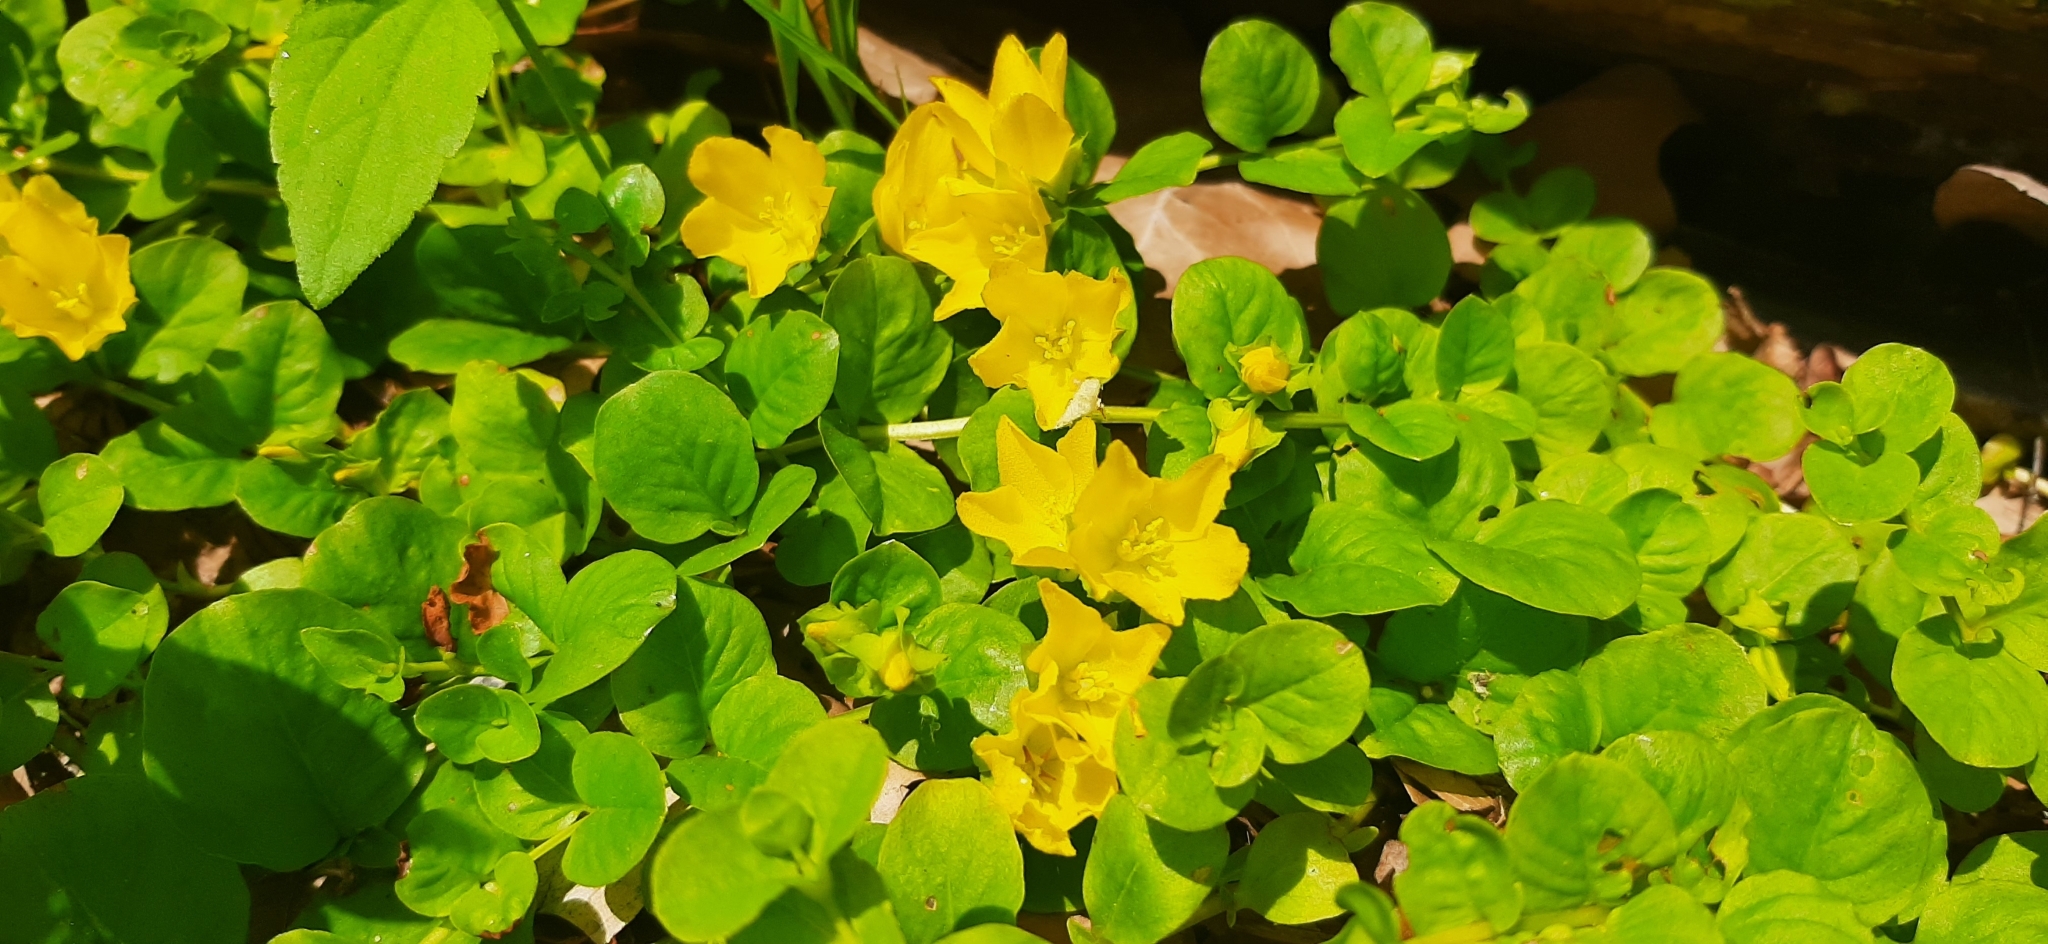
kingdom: Plantae
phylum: Tracheophyta
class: Magnoliopsida
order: Ericales
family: Primulaceae
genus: Lysimachia
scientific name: Lysimachia nummularia
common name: Moneywort
